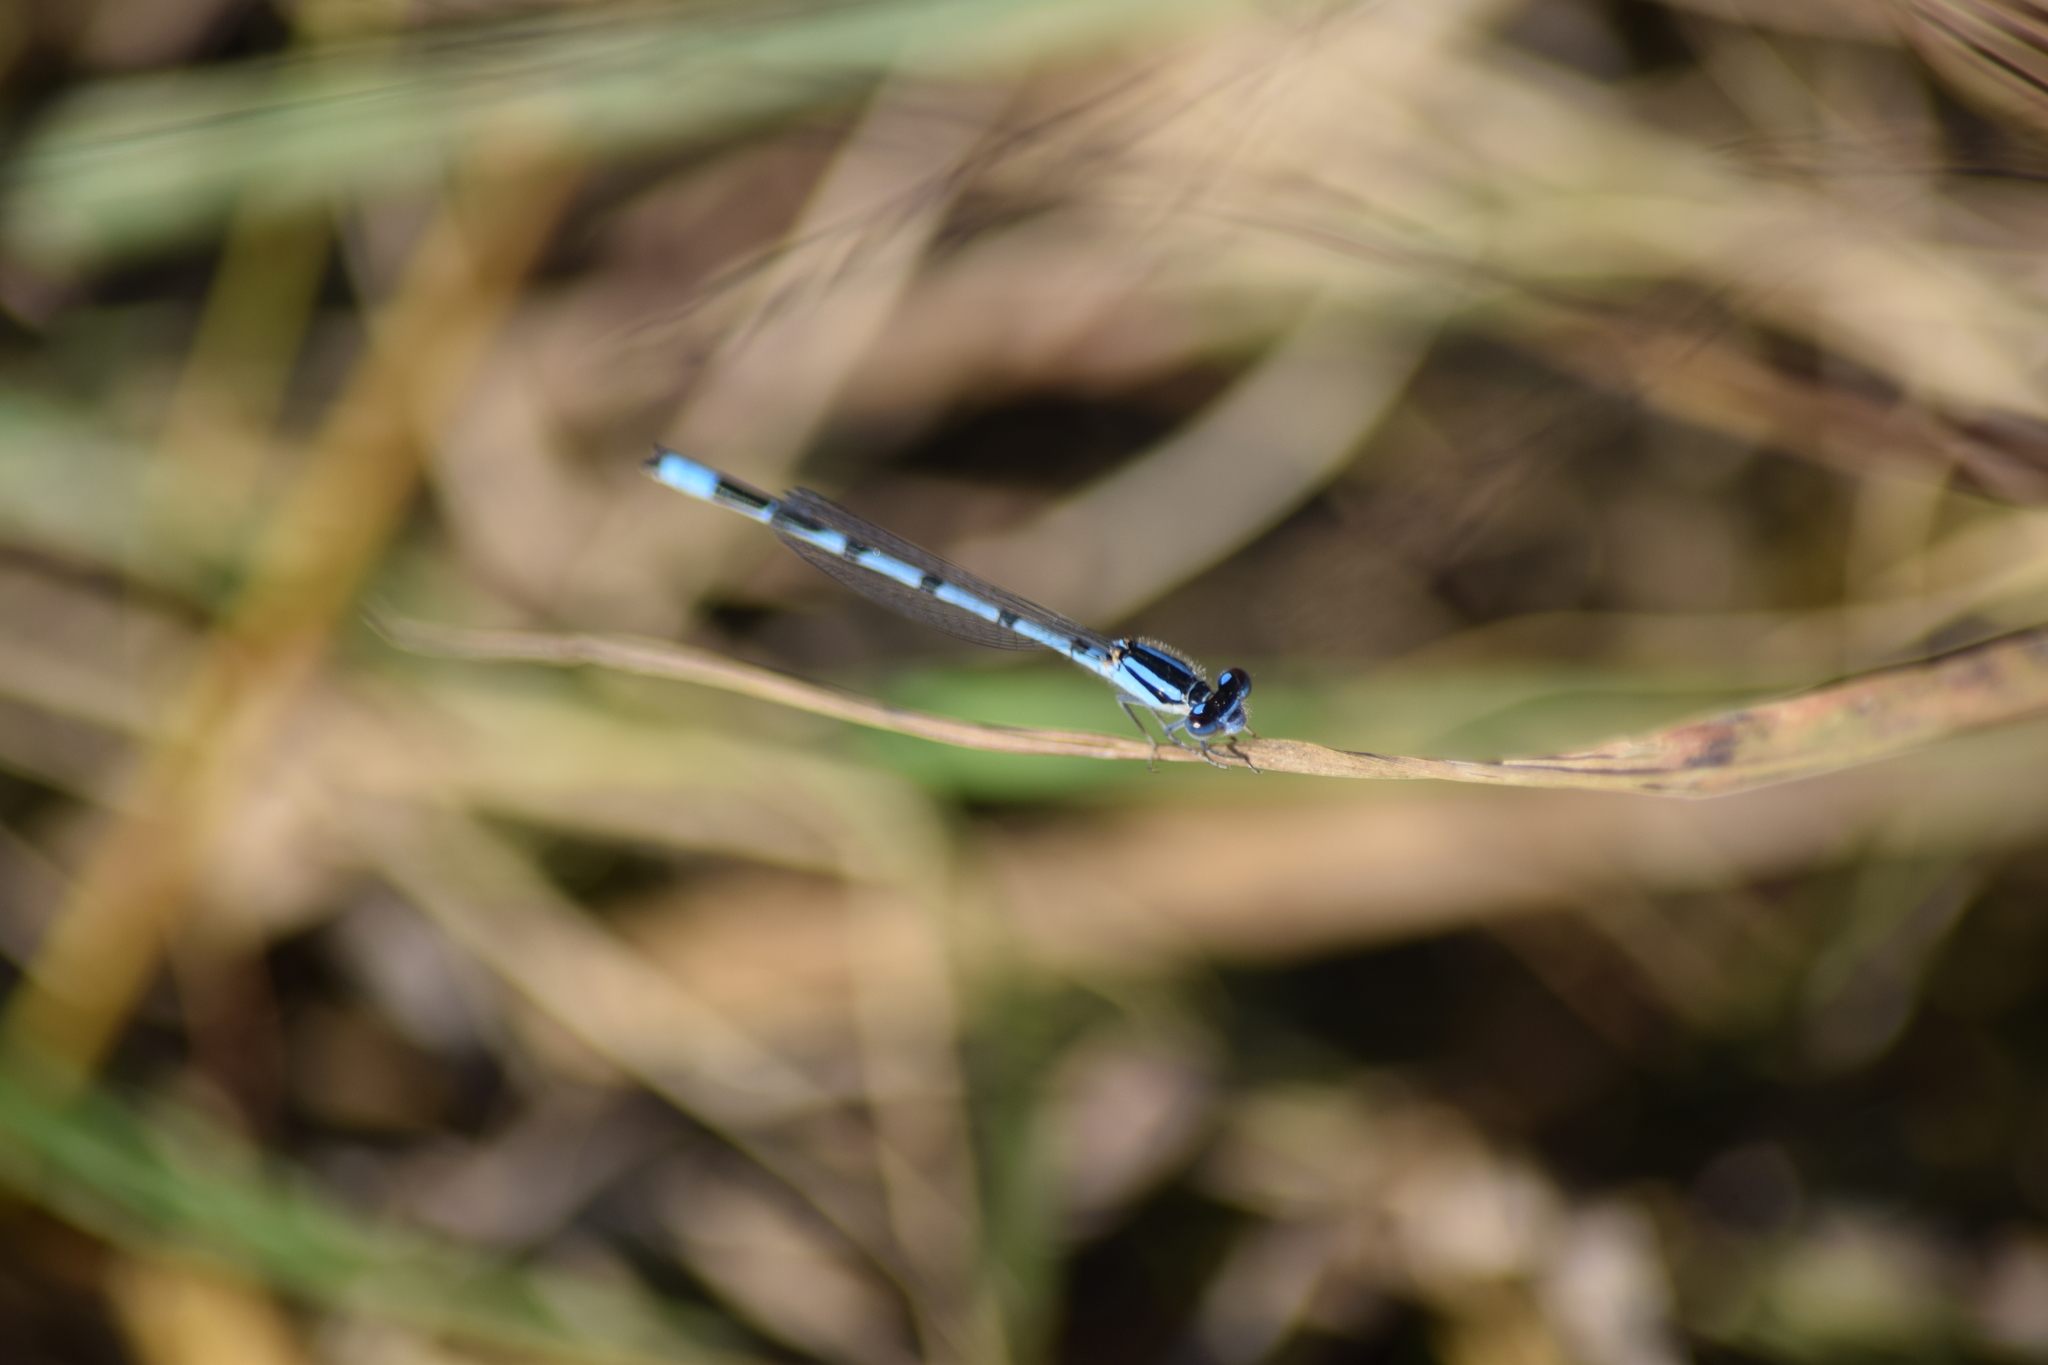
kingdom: Animalia
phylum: Arthropoda
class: Insecta
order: Odonata
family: Coenagrionidae
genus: Enallagma
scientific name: Enallagma civile
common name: Damselfly
